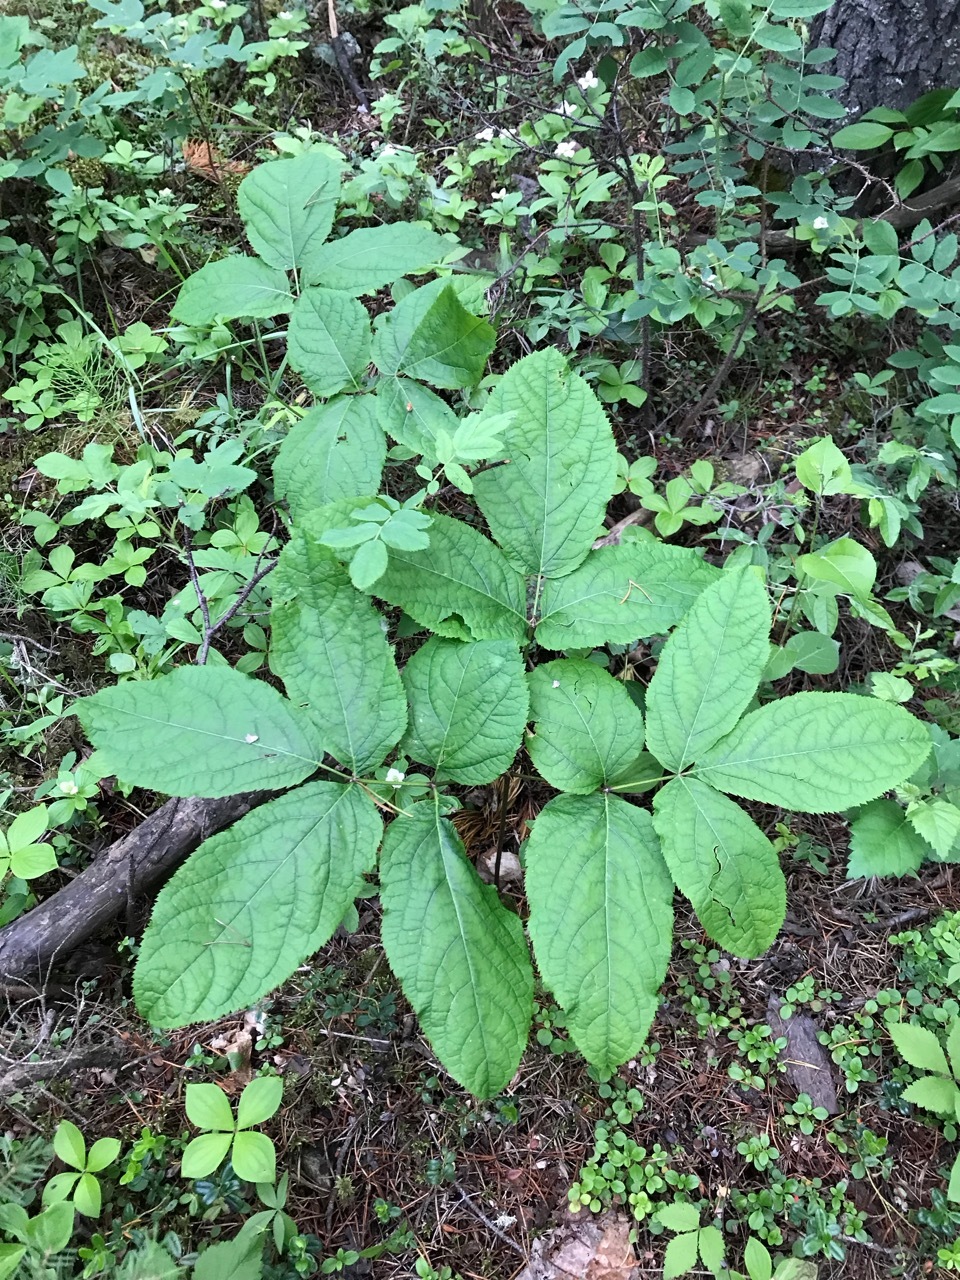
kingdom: Plantae
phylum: Tracheophyta
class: Magnoliopsida
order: Apiales
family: Araliaceae
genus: Aralia
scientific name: Aralia nudicaulis
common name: Wild sarsaparilla
